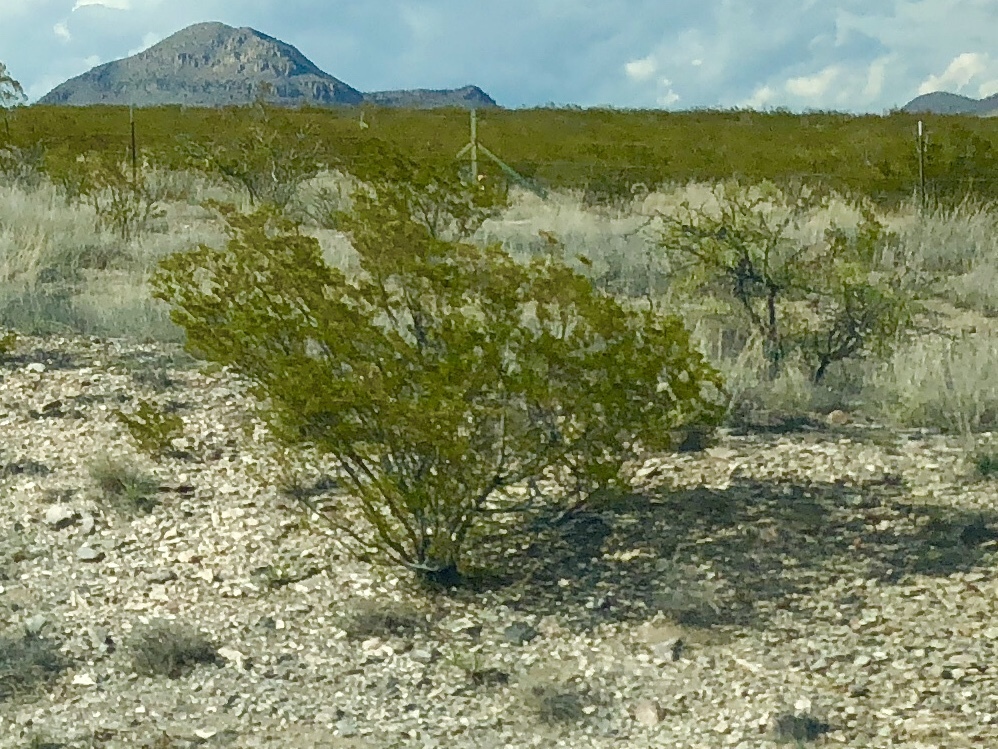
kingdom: Plantae
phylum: Tracheophyta
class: Magnoliopsida
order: Zygophyllales
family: Zygophyllaceae
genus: Larrea
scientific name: Larrea tridentata
